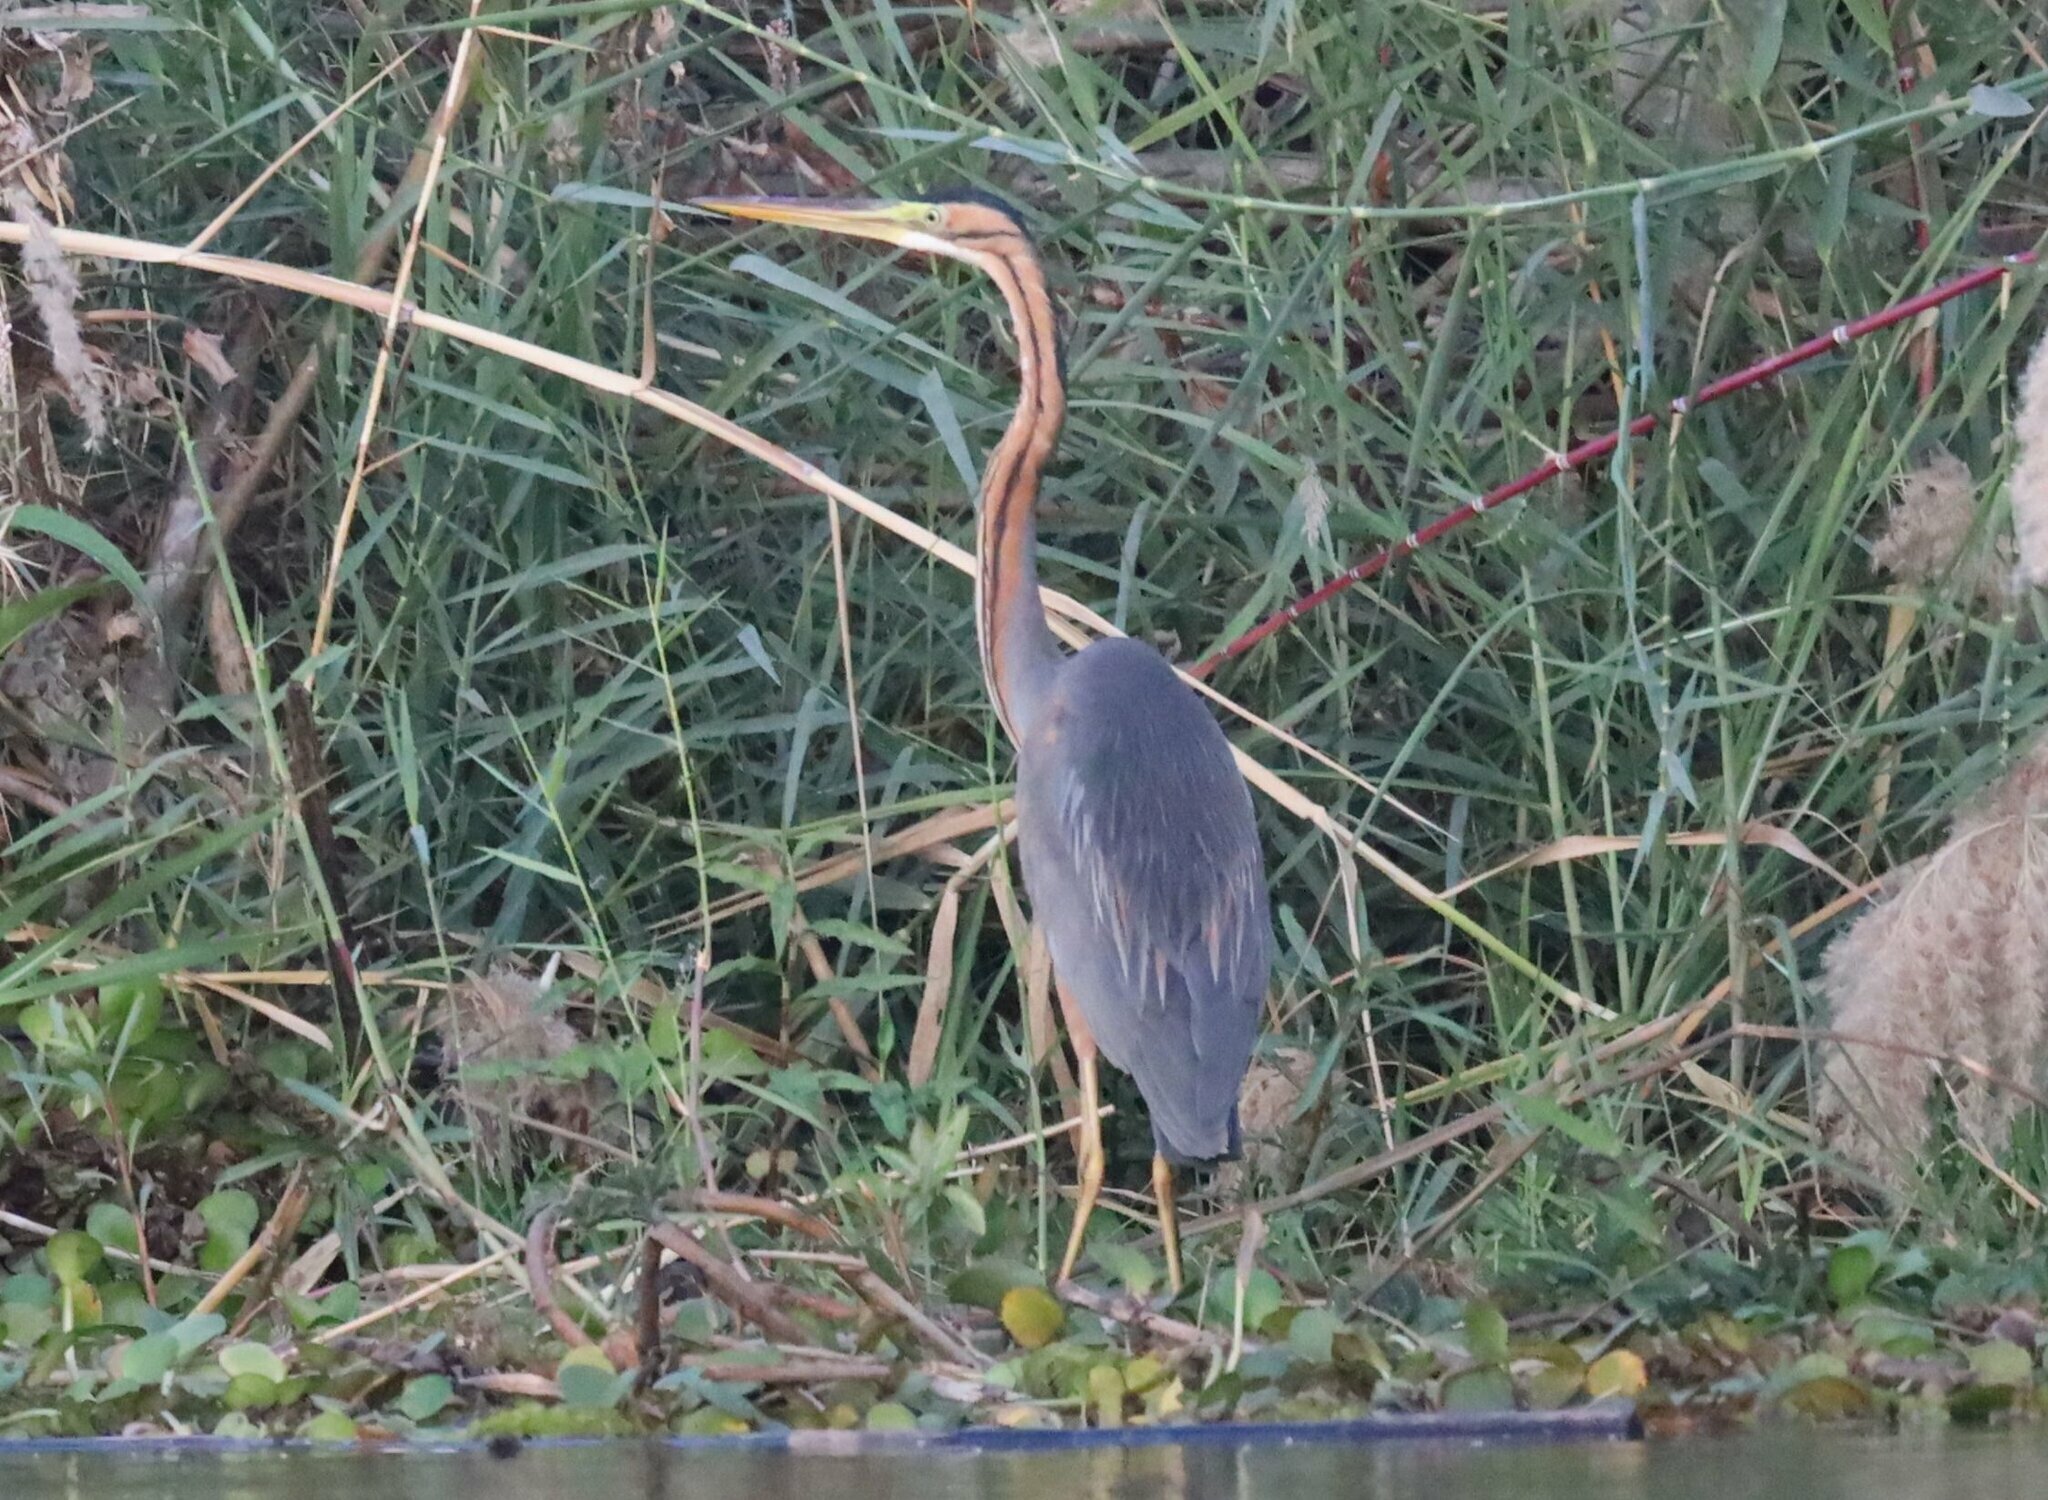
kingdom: Animalia
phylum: Chordata
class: Aves
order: Pelecaniformes
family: Ardeidae
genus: Ardea
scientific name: Ardea purpurea
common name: Purple heron
